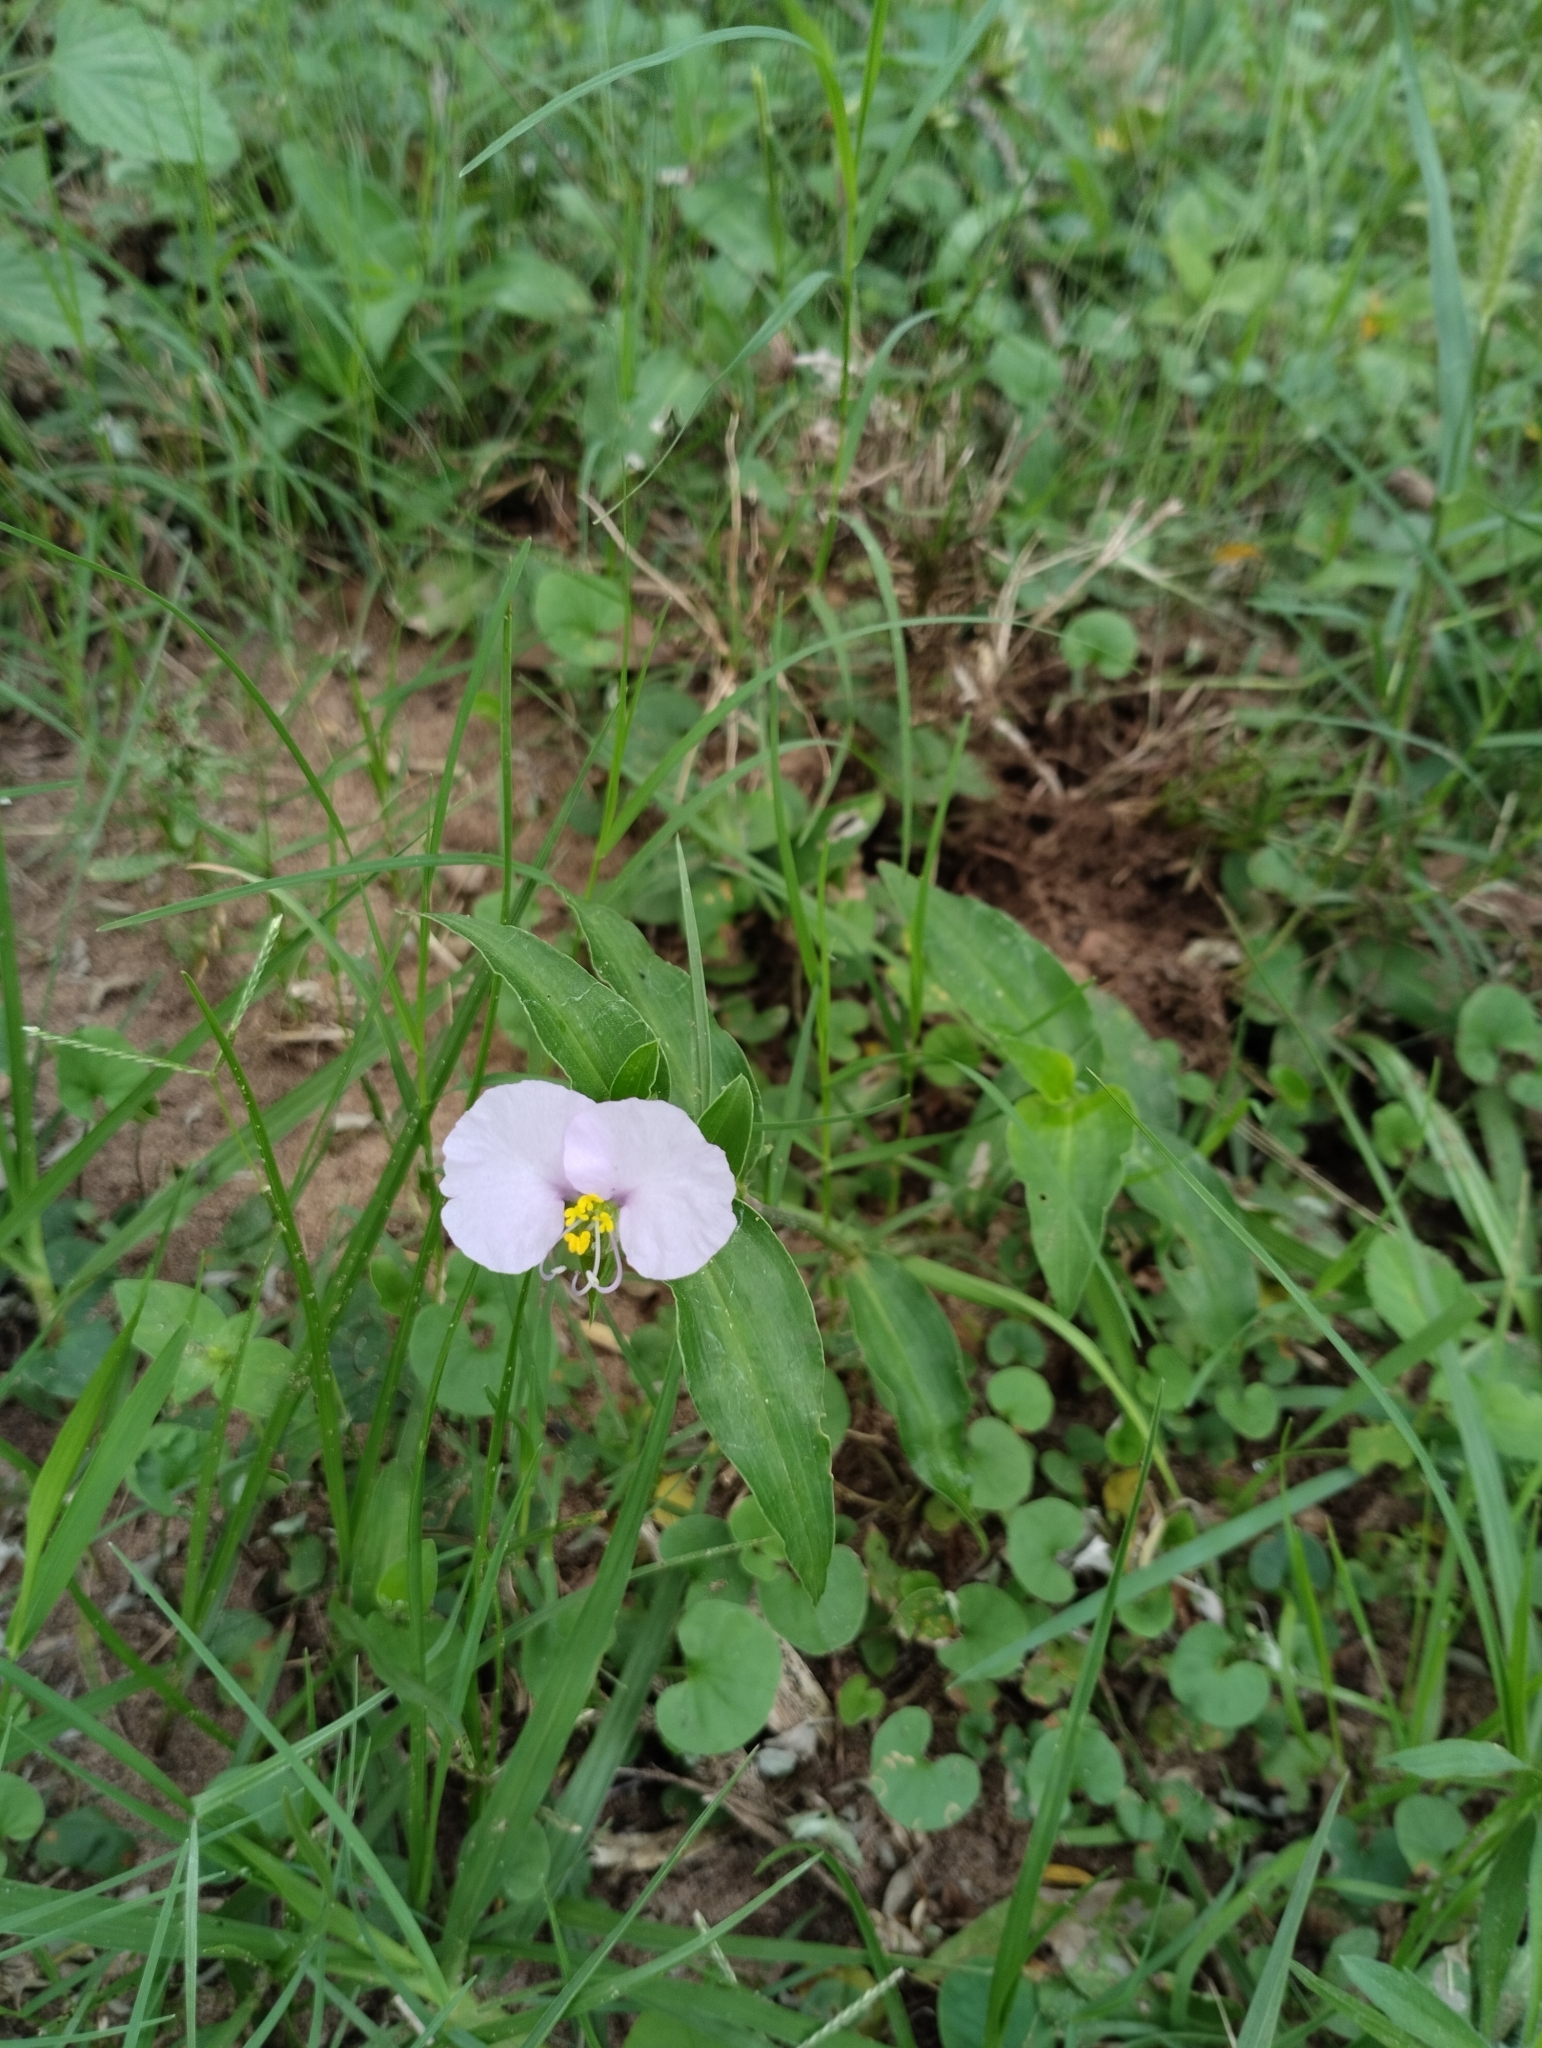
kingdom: Plantae
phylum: Tracheophyta
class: Liliopsida
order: Commelinales
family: Commelinaceae
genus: Commelina
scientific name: Commelina erecta
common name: Blousel blommetjie
